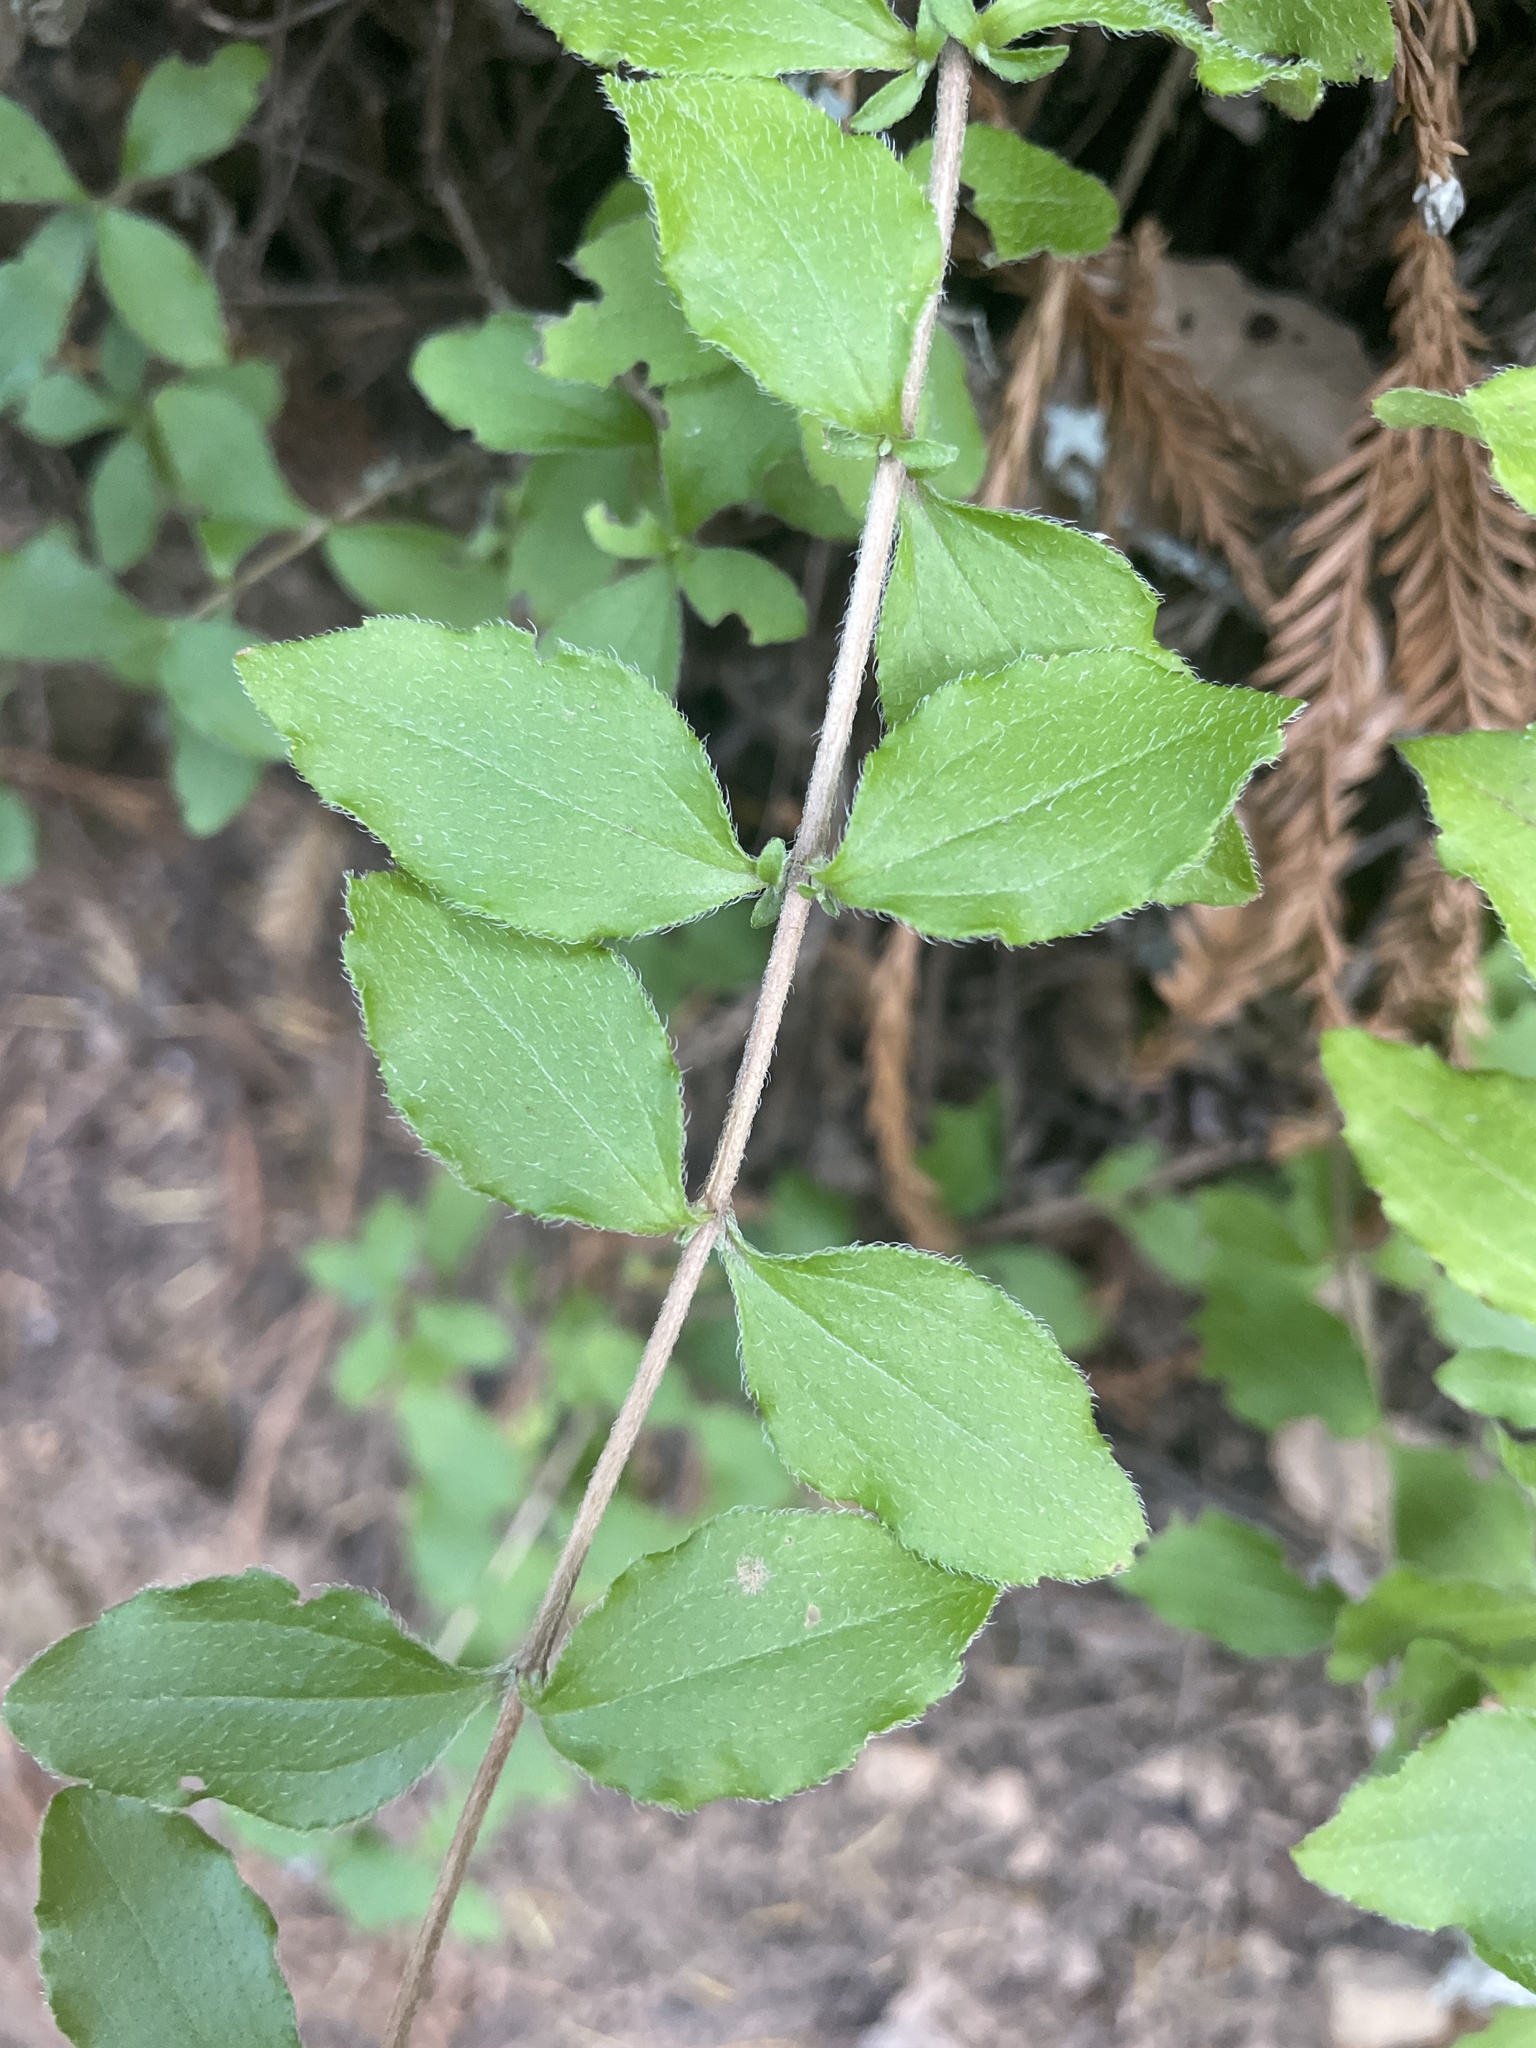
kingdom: Plantae
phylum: Tracheophyta
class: Magnoliopsida
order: Cornales
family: Hydrangeaceae
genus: Whipplea
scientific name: Whipplea modesta
